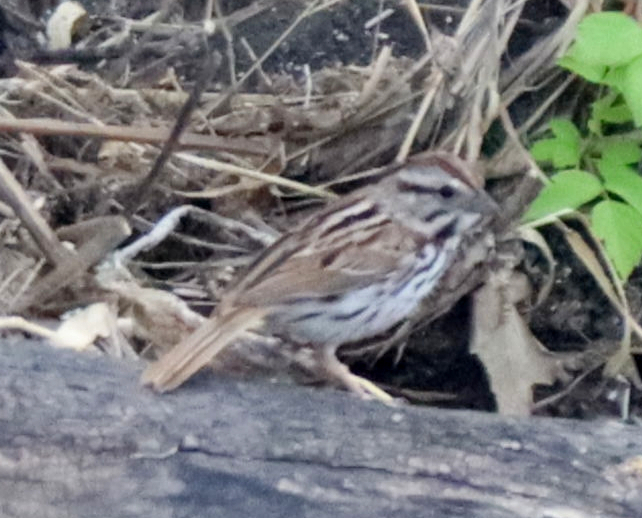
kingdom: Animalia
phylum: Chordata
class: Aves
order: Passeriformes
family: Passerellidae
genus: Melospiza
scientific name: Melospiza melodia
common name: Song sparrow
